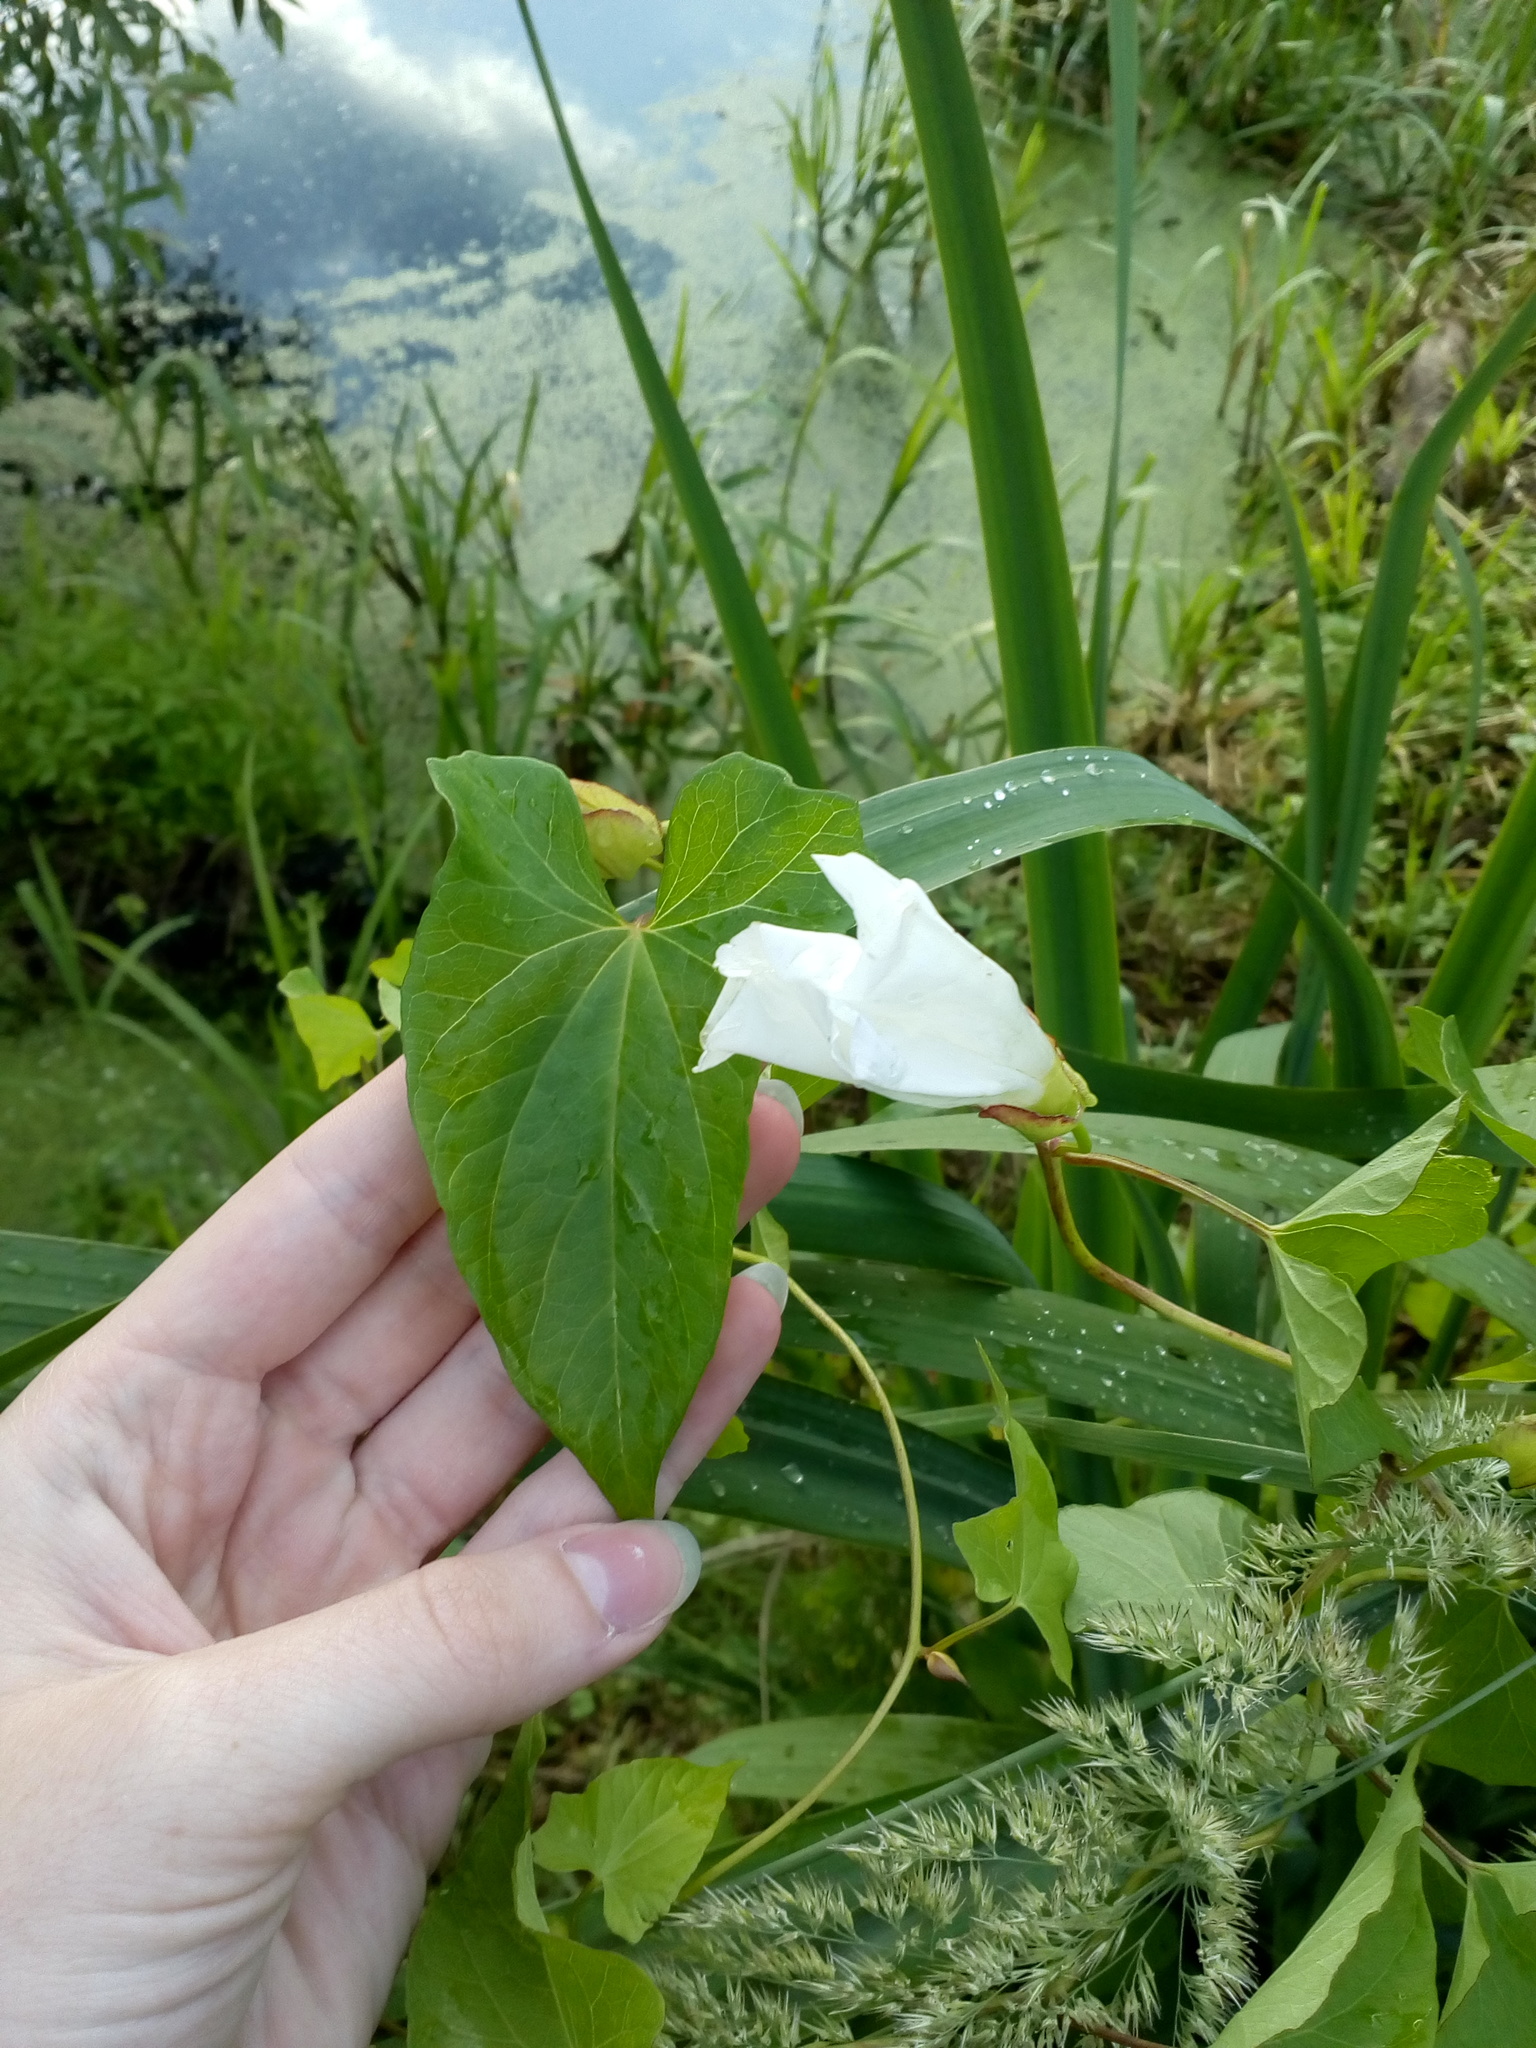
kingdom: Plantae
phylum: Tracheophyta
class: Magnoliopsida
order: Solanales
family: Convolvulaceae
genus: Calystegia
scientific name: Calystegia sepium
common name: Hedge bindweed
